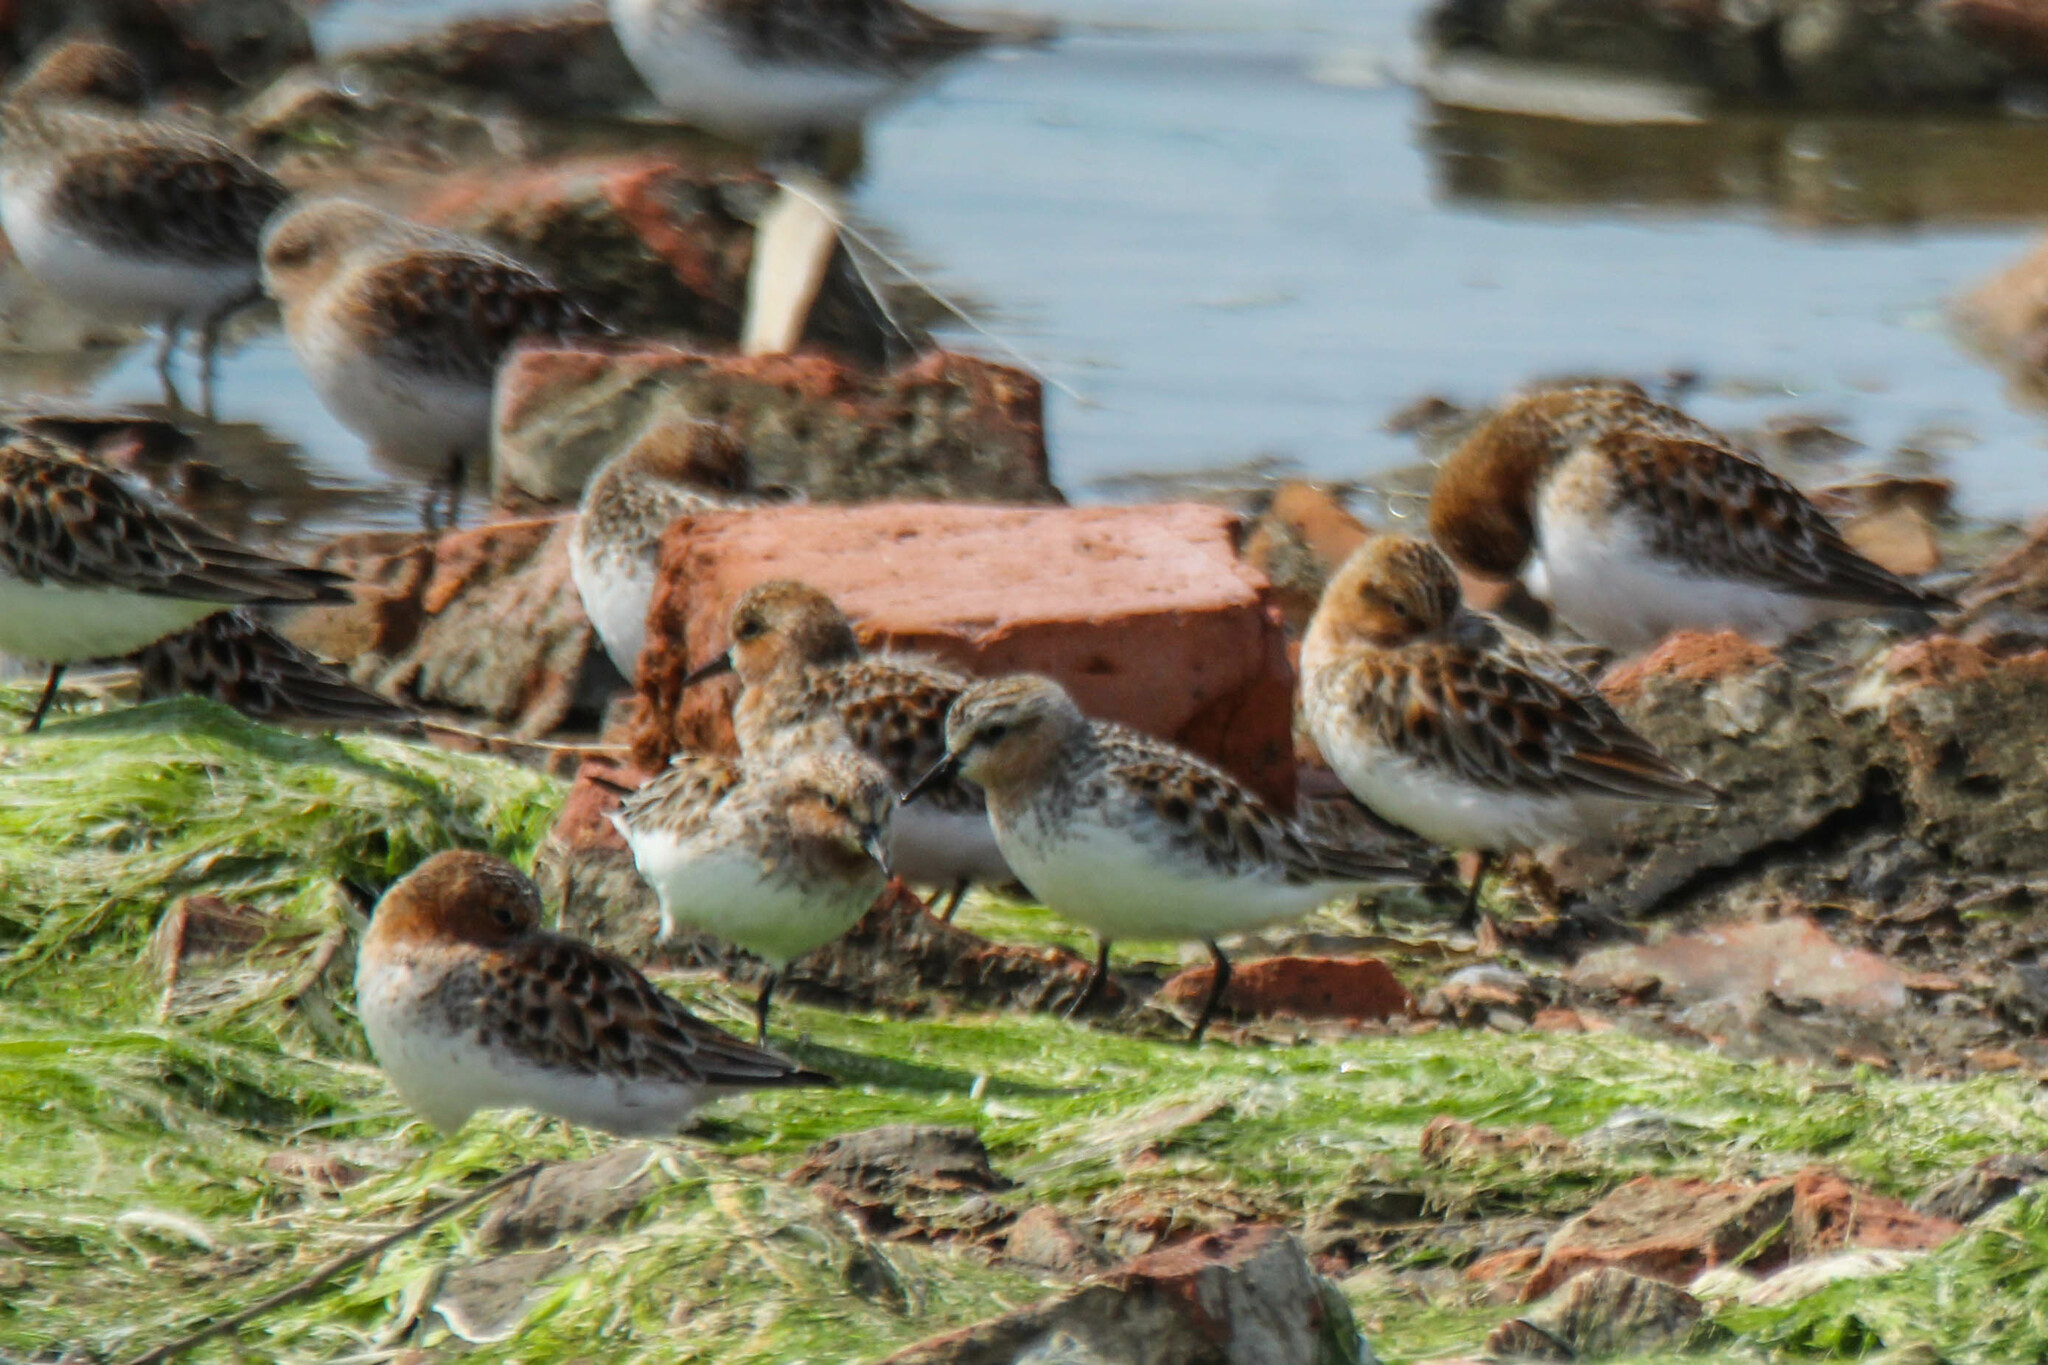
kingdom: Animalia
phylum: Chordata
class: Aves
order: Charadriiformes
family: Scolopacidae
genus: Calidris
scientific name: Calidris ruficollis
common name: Red-necked stint
